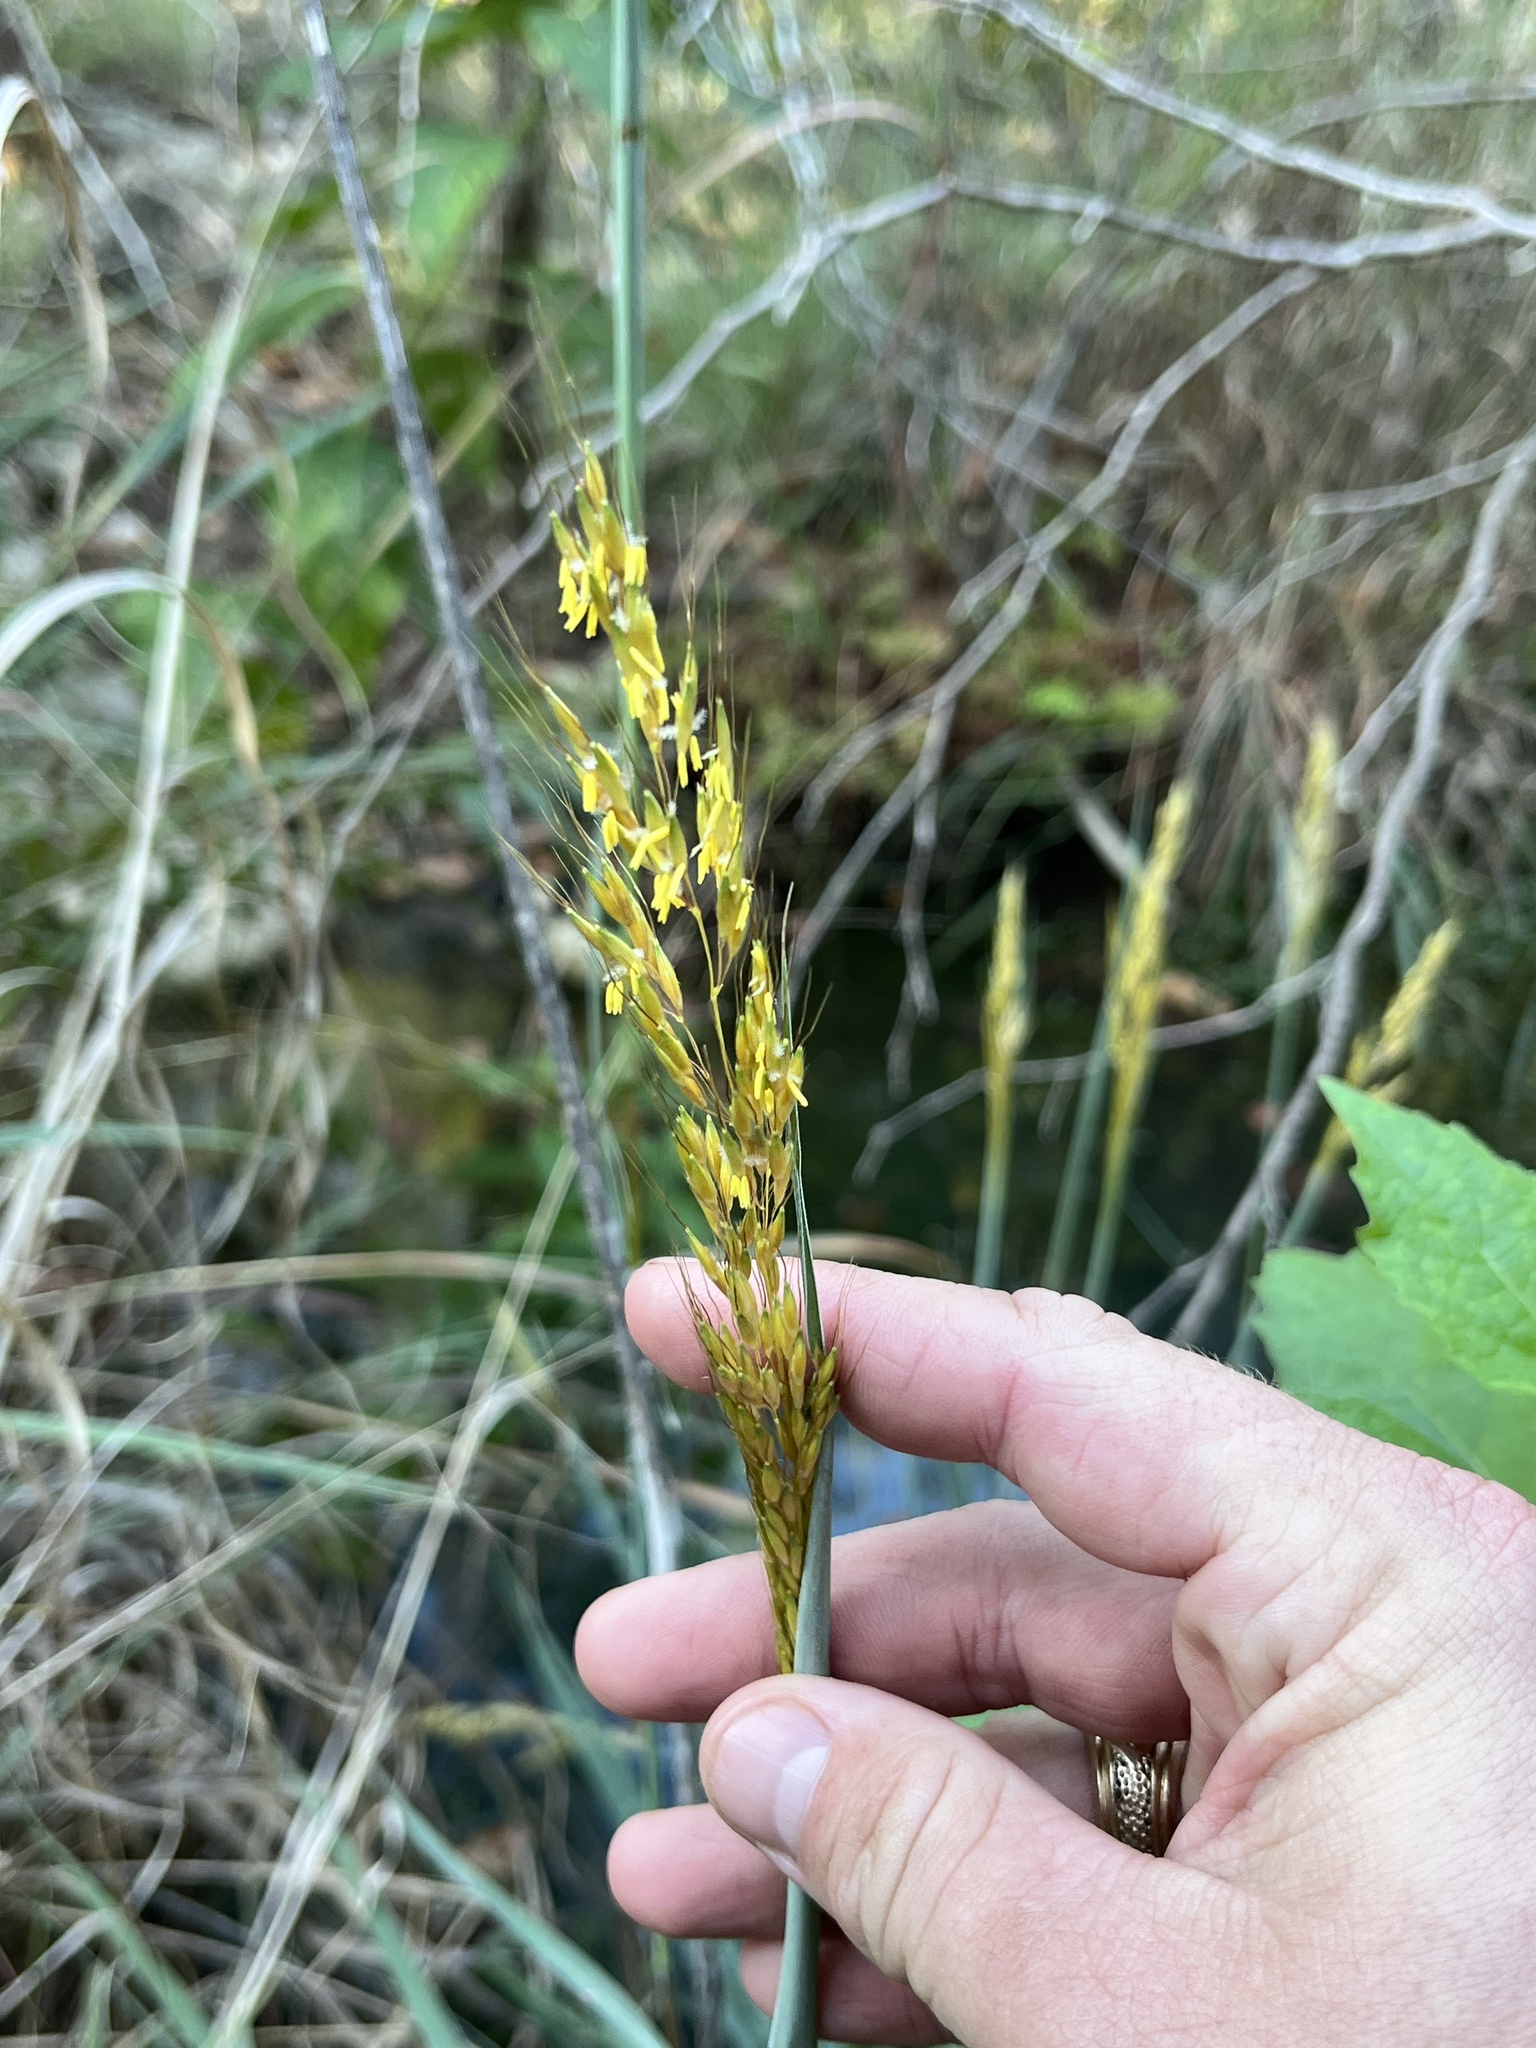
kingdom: Plantae
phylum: Tracheophyta
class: Liliopsida
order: Poales
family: Poaceae
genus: Sorghastrum
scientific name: Sorghastrum nutans
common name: Indian grass
